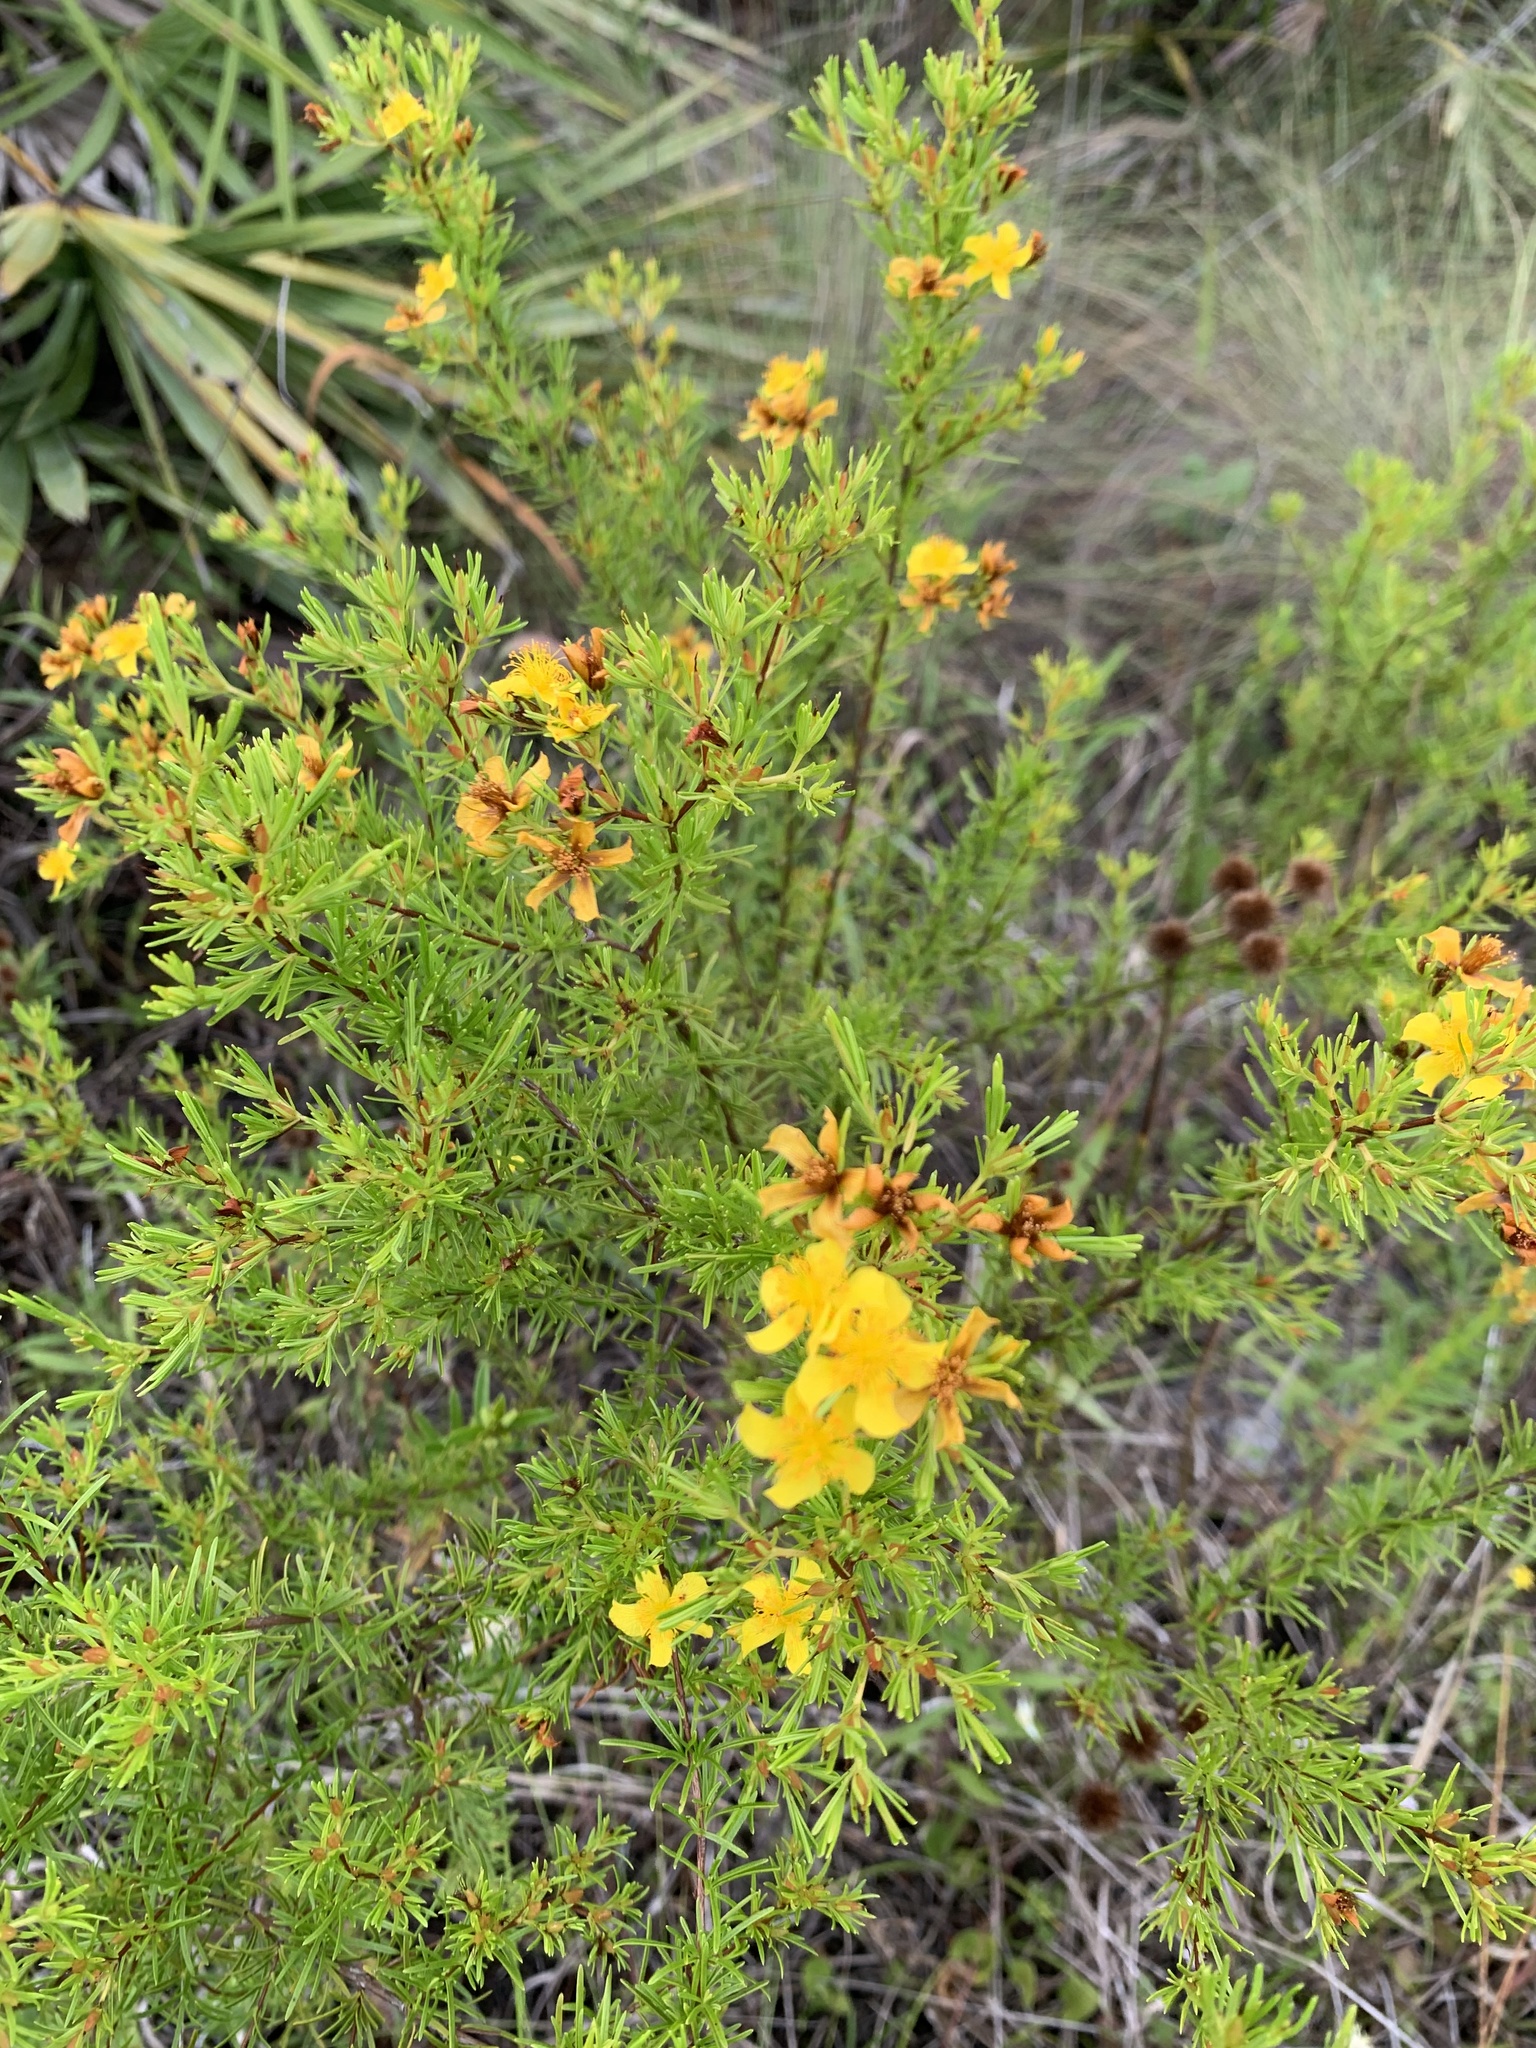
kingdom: Plantae
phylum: Tracheophyta
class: Magnoliopsida
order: Malpighiales
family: Hypericaceae
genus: Hypericum
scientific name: Hypericum fasciculatum
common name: Peelbark st. john's wort
